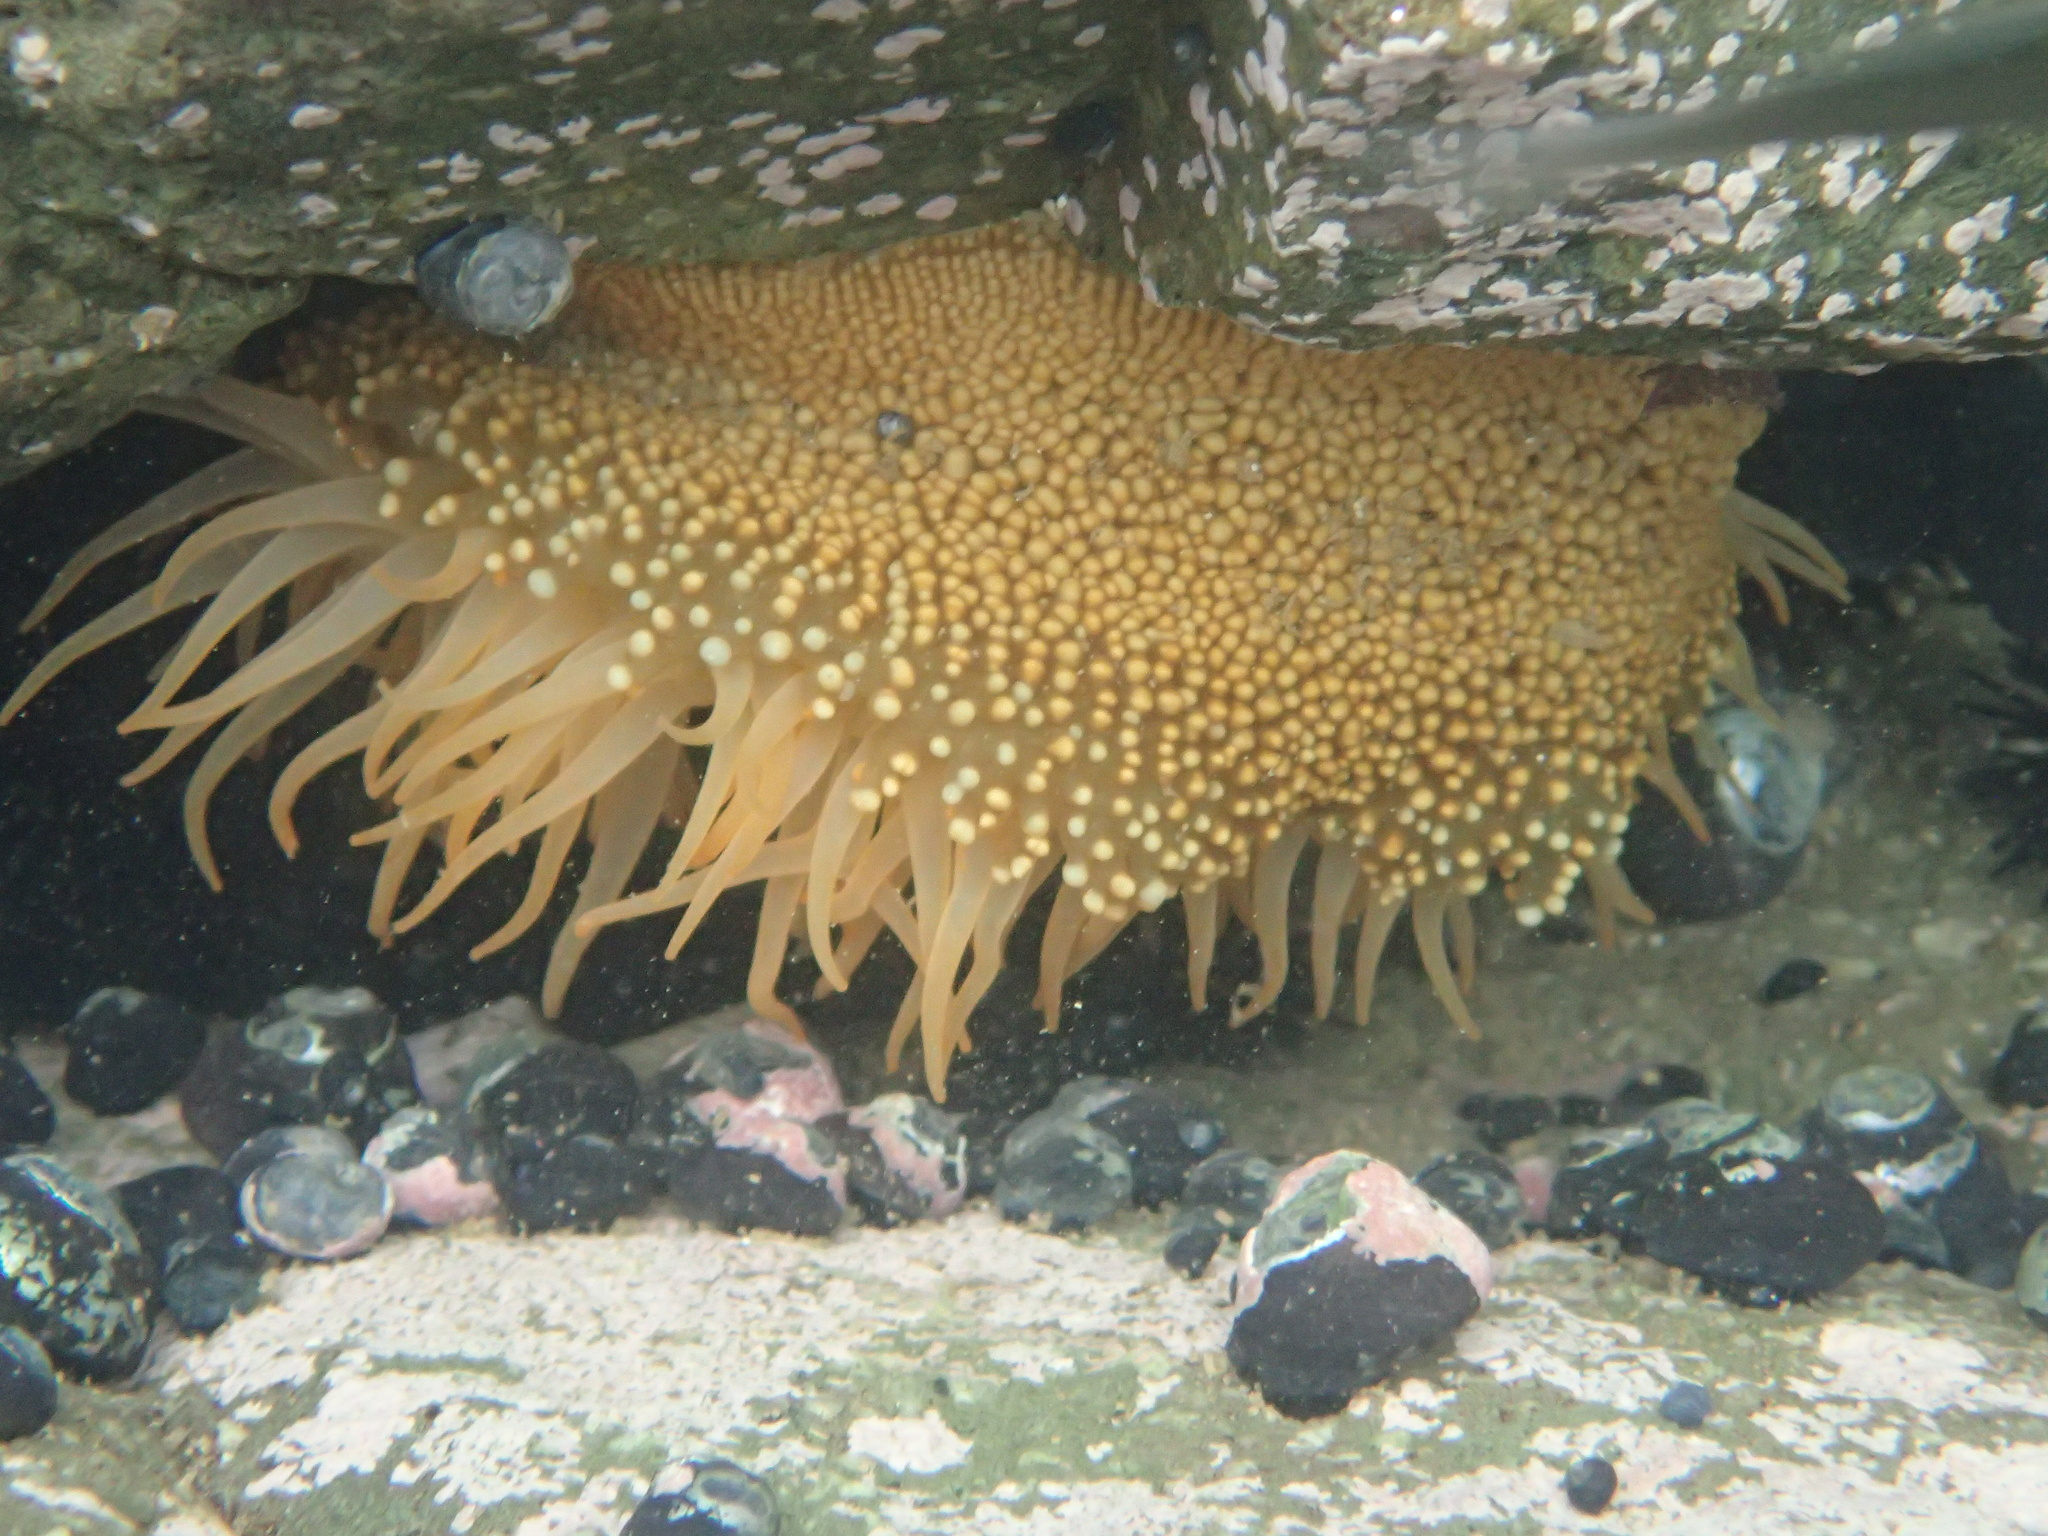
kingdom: Animalia
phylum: Cnidaria
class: Anthozoa
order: Actiniaria
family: Actiniidae
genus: Phymanthea
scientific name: Phymanthea pluvia
